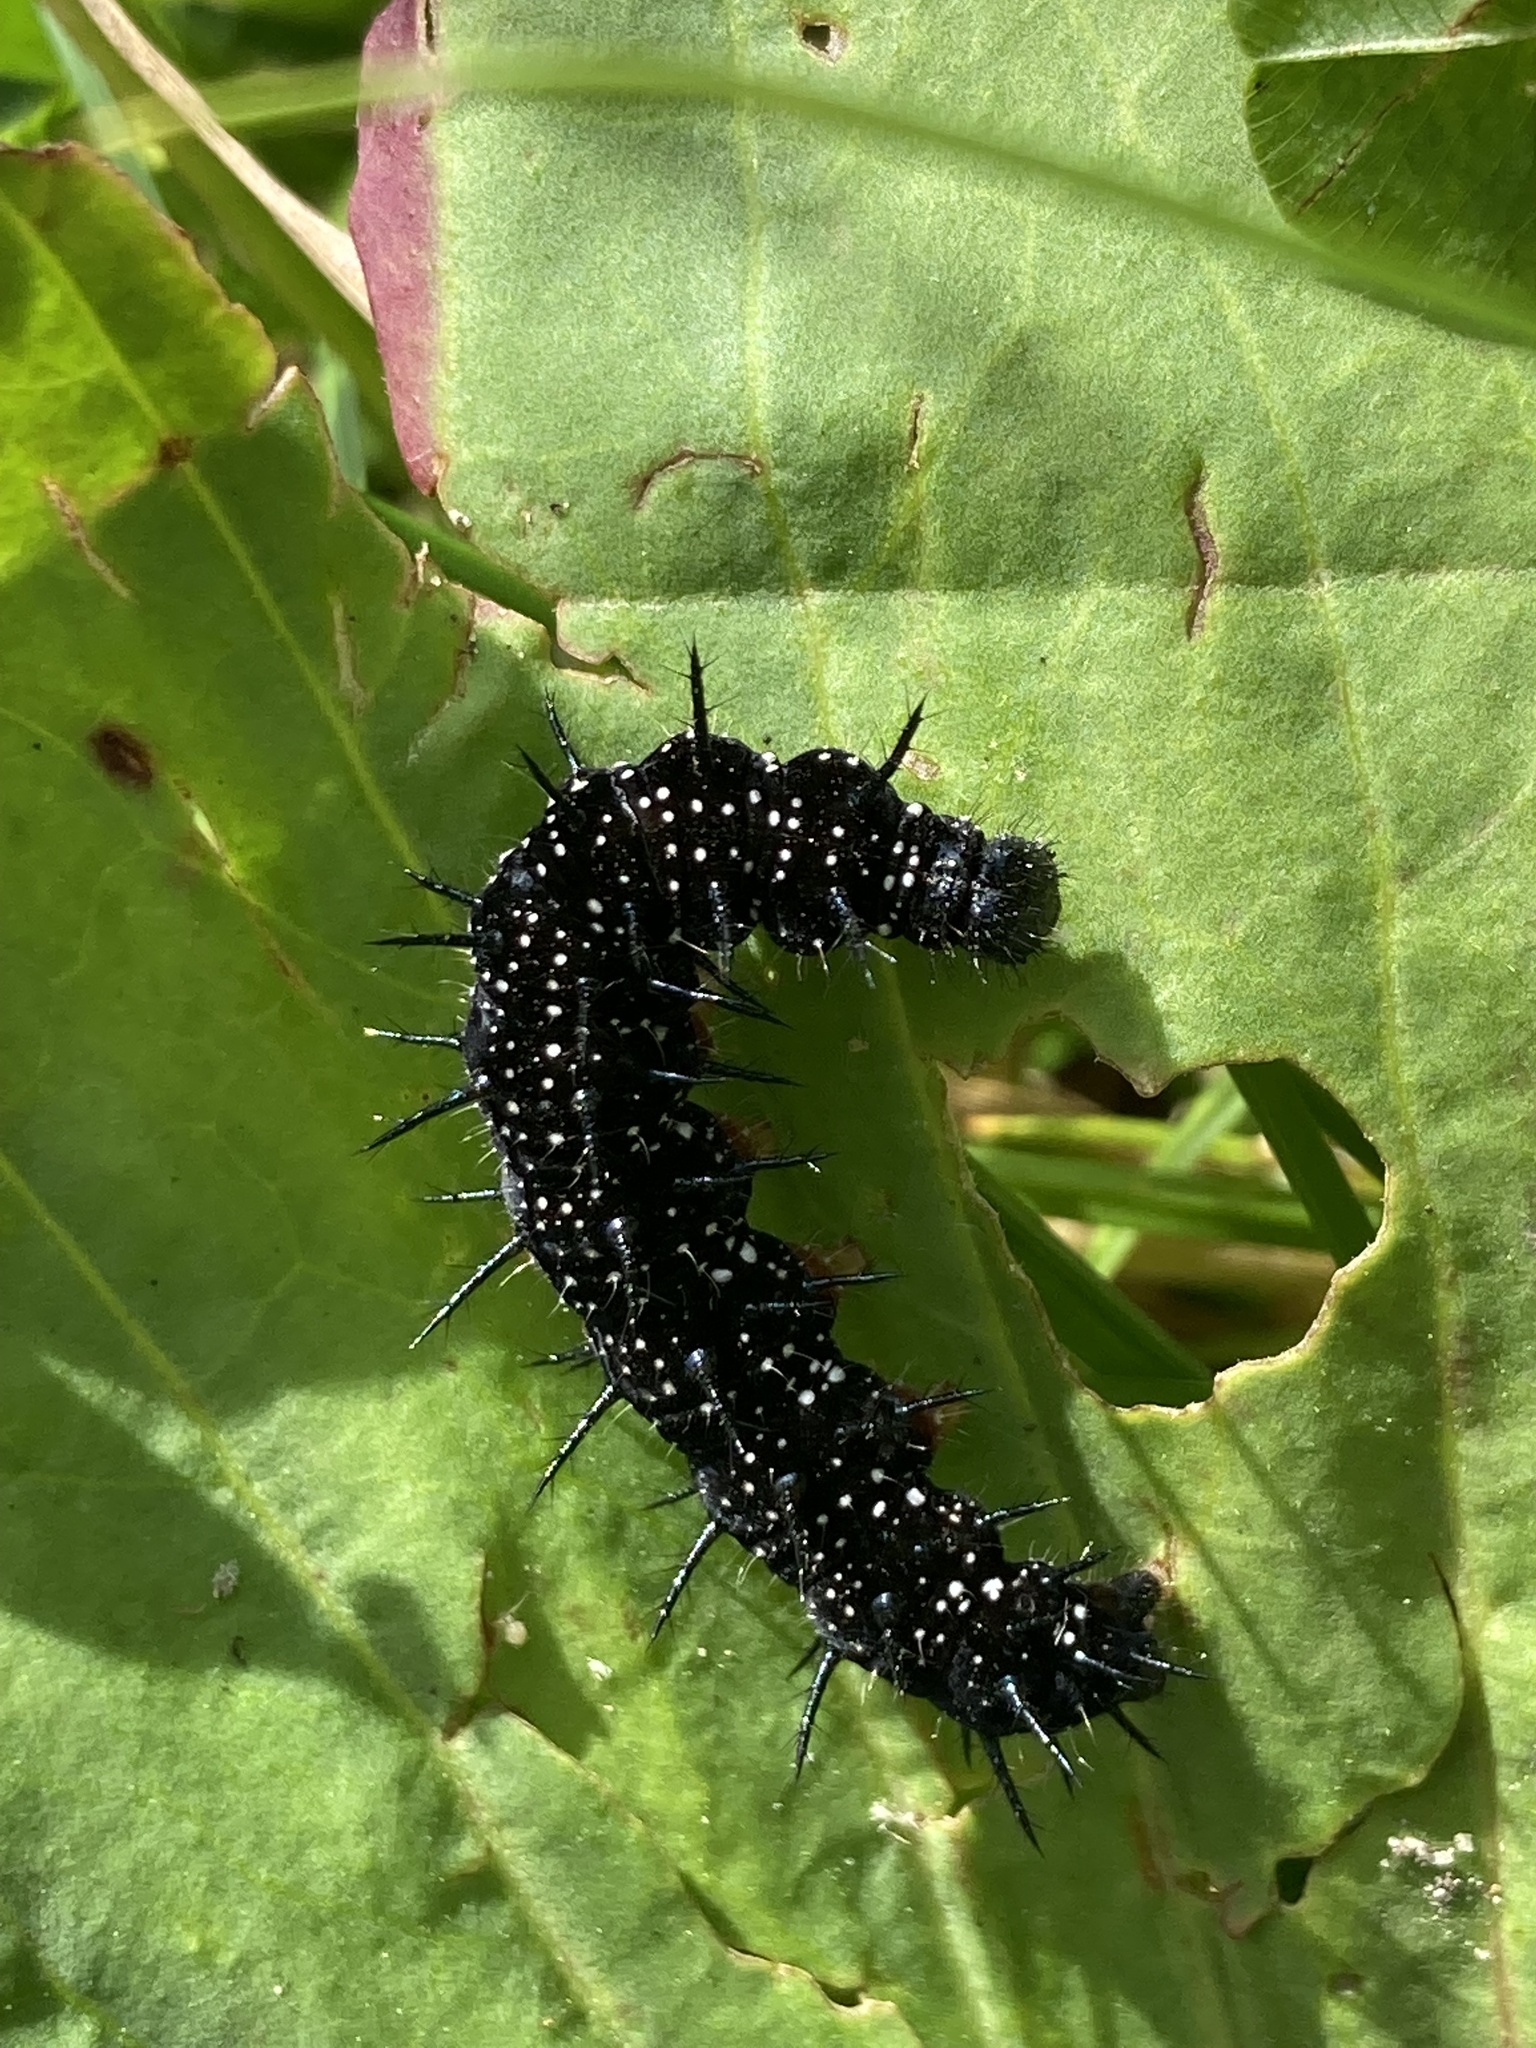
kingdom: Animalia
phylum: Arthropoda
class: Insecta
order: Lepidoptera
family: Nymphalidae
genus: Aglais
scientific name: Aglais io
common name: Peacock
